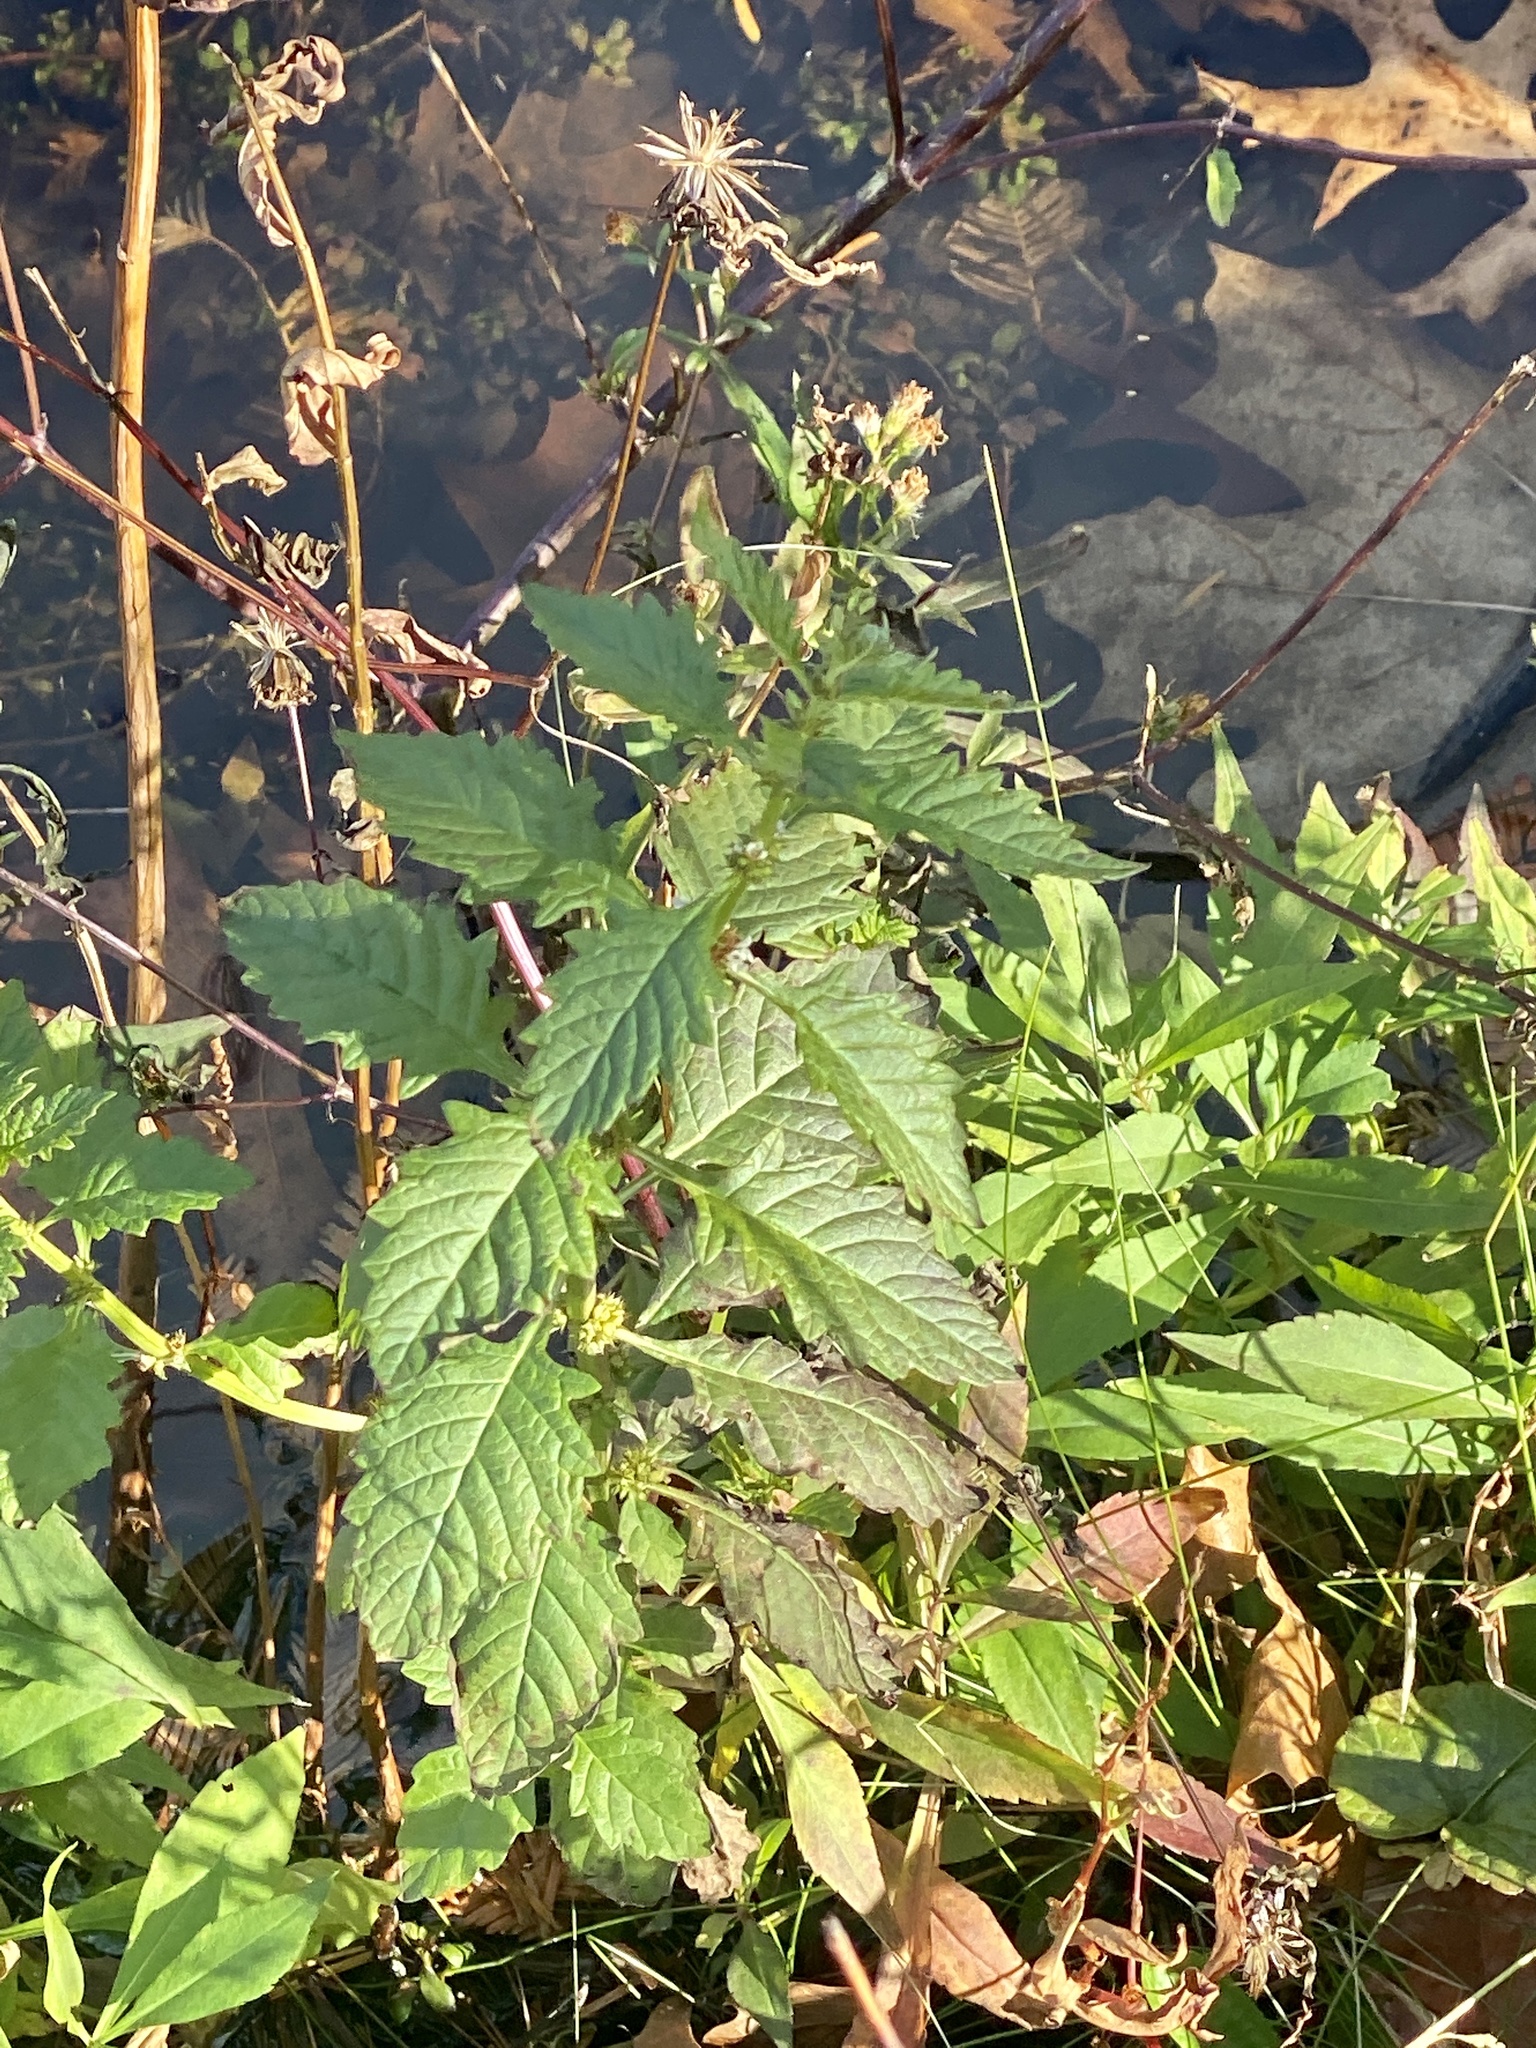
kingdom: Plantae
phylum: Tracheophyta
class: Magnoliopsida
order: Lamiales
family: Lamiaceae
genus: Lycopus
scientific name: Lycopus europaeus
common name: European bugleweed
